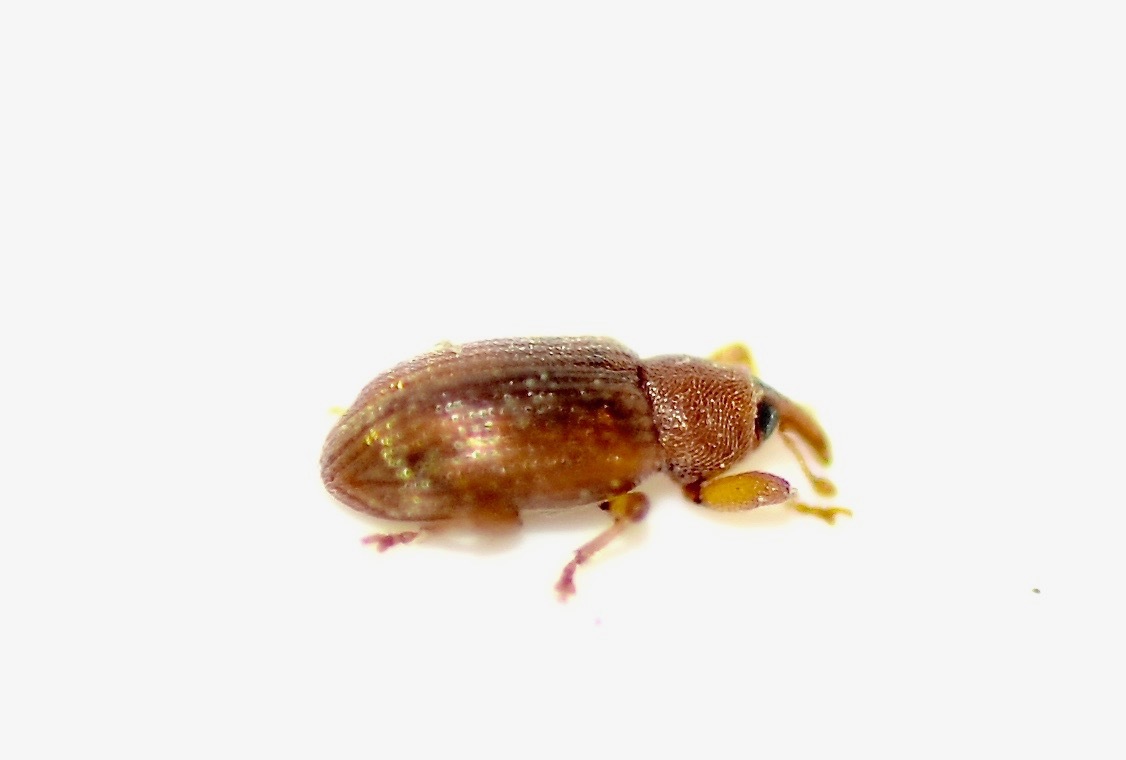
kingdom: Animalia
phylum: Arthropoda
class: Insecta
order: Coleoptera
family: Curculionidae
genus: Aneuma
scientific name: Aneuma
